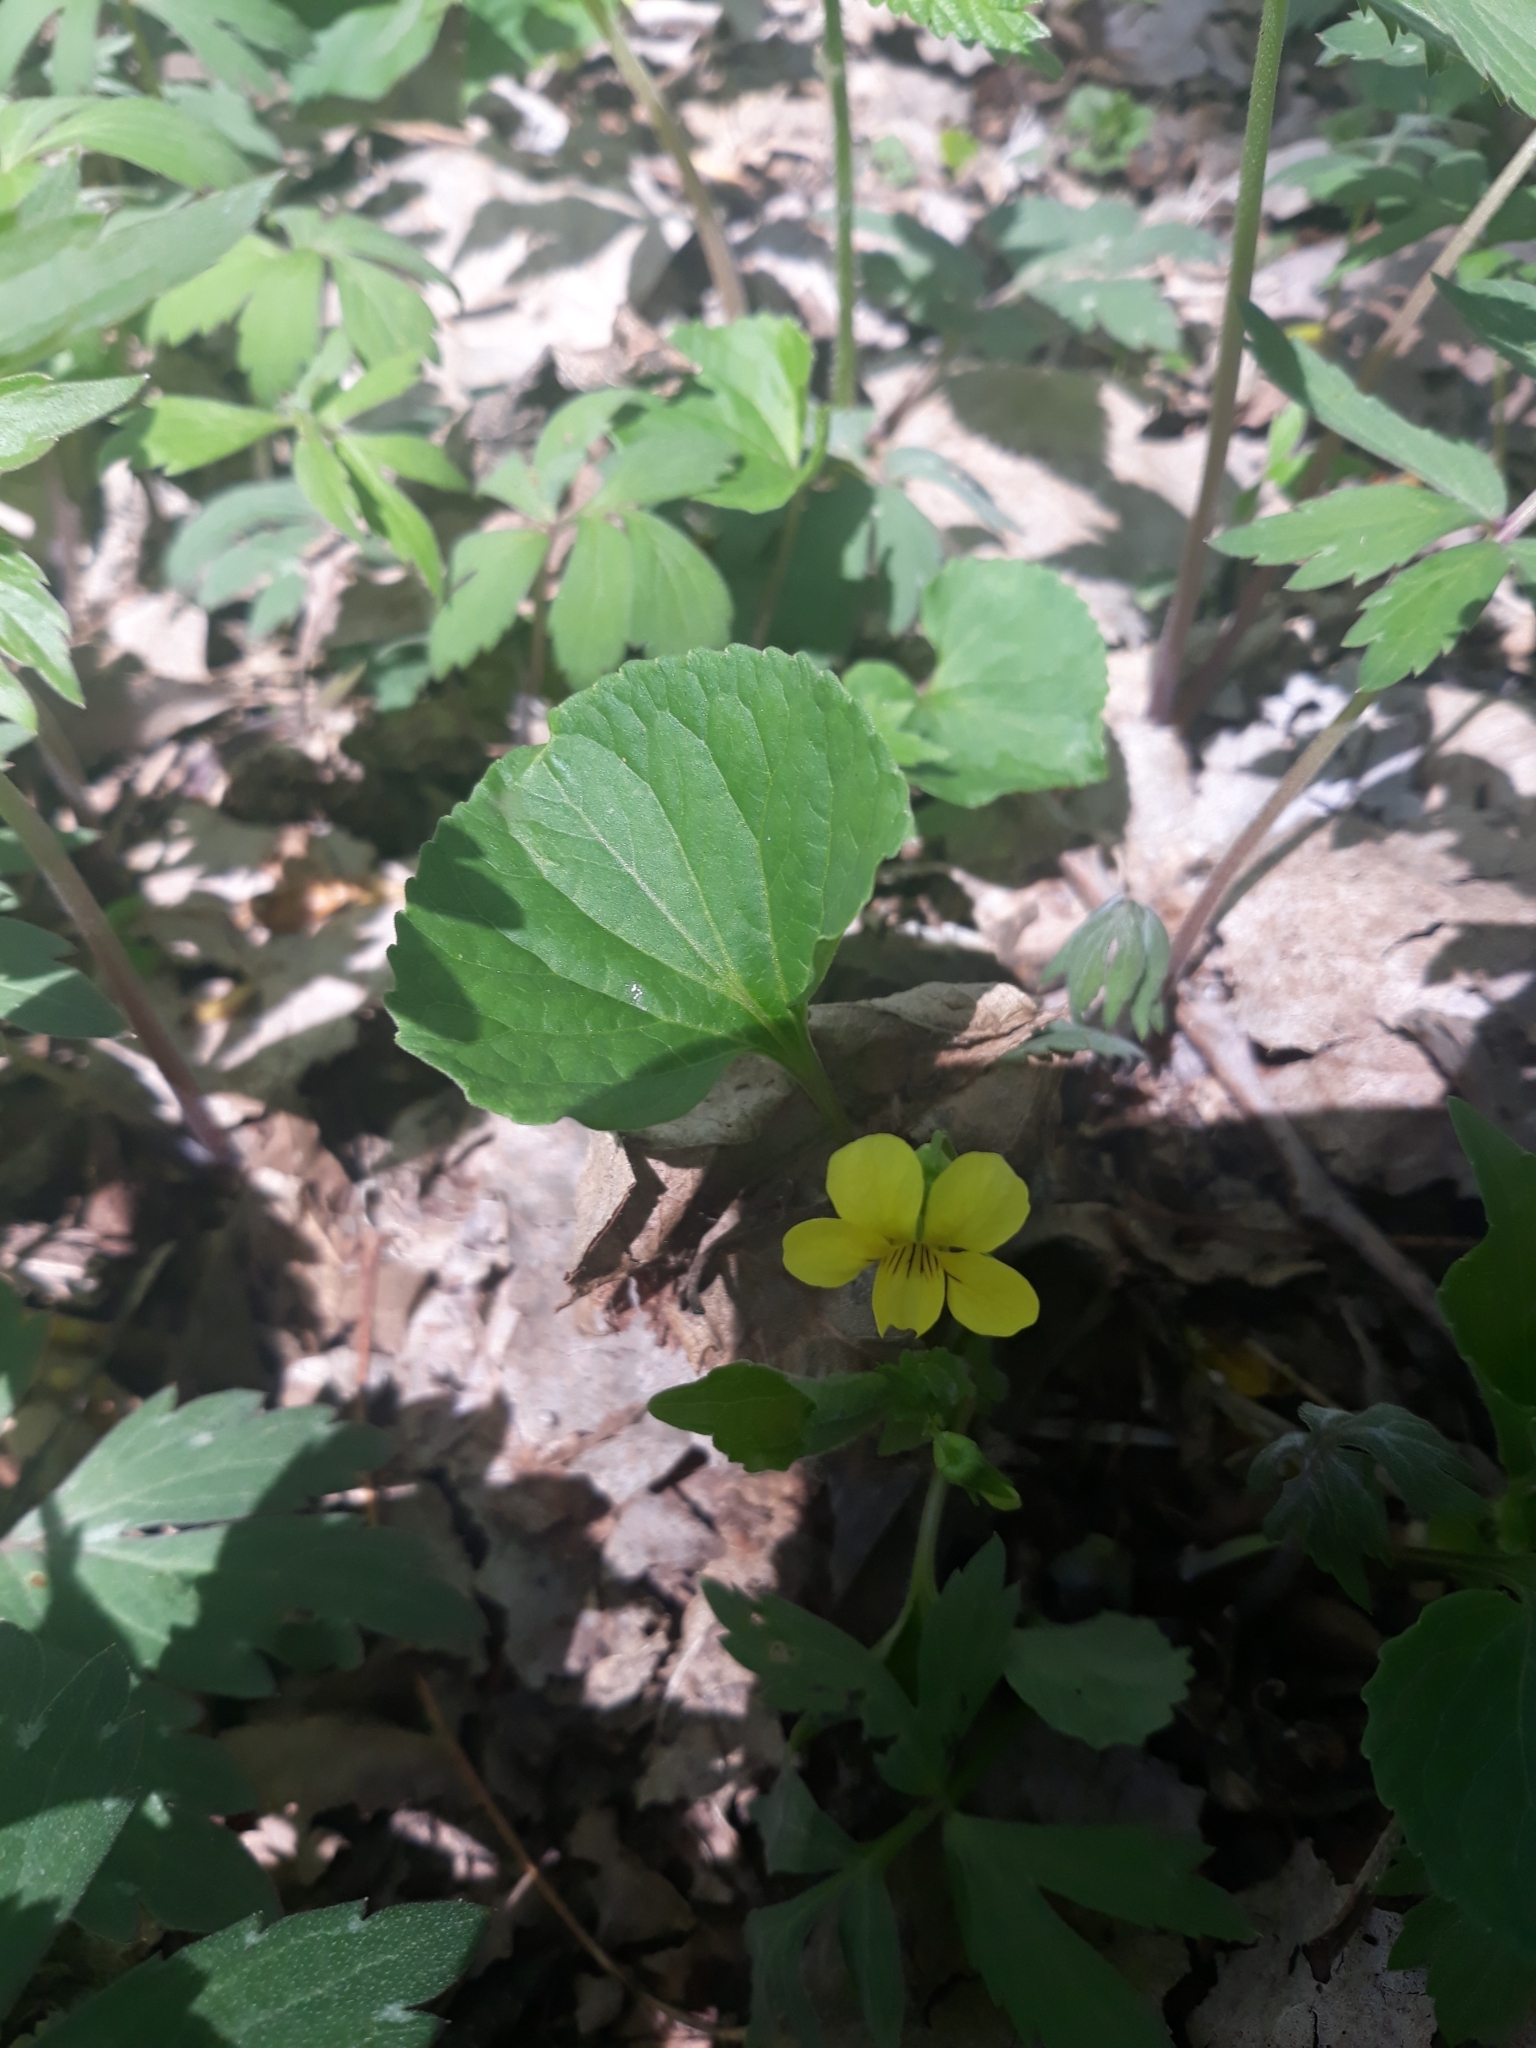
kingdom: Plantae
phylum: Tracheophyta
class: Magnoliopsida
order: Malpighiales
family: Violaceae
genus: Viola
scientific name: Viola eriocarpa
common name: Smooth yellow violet
